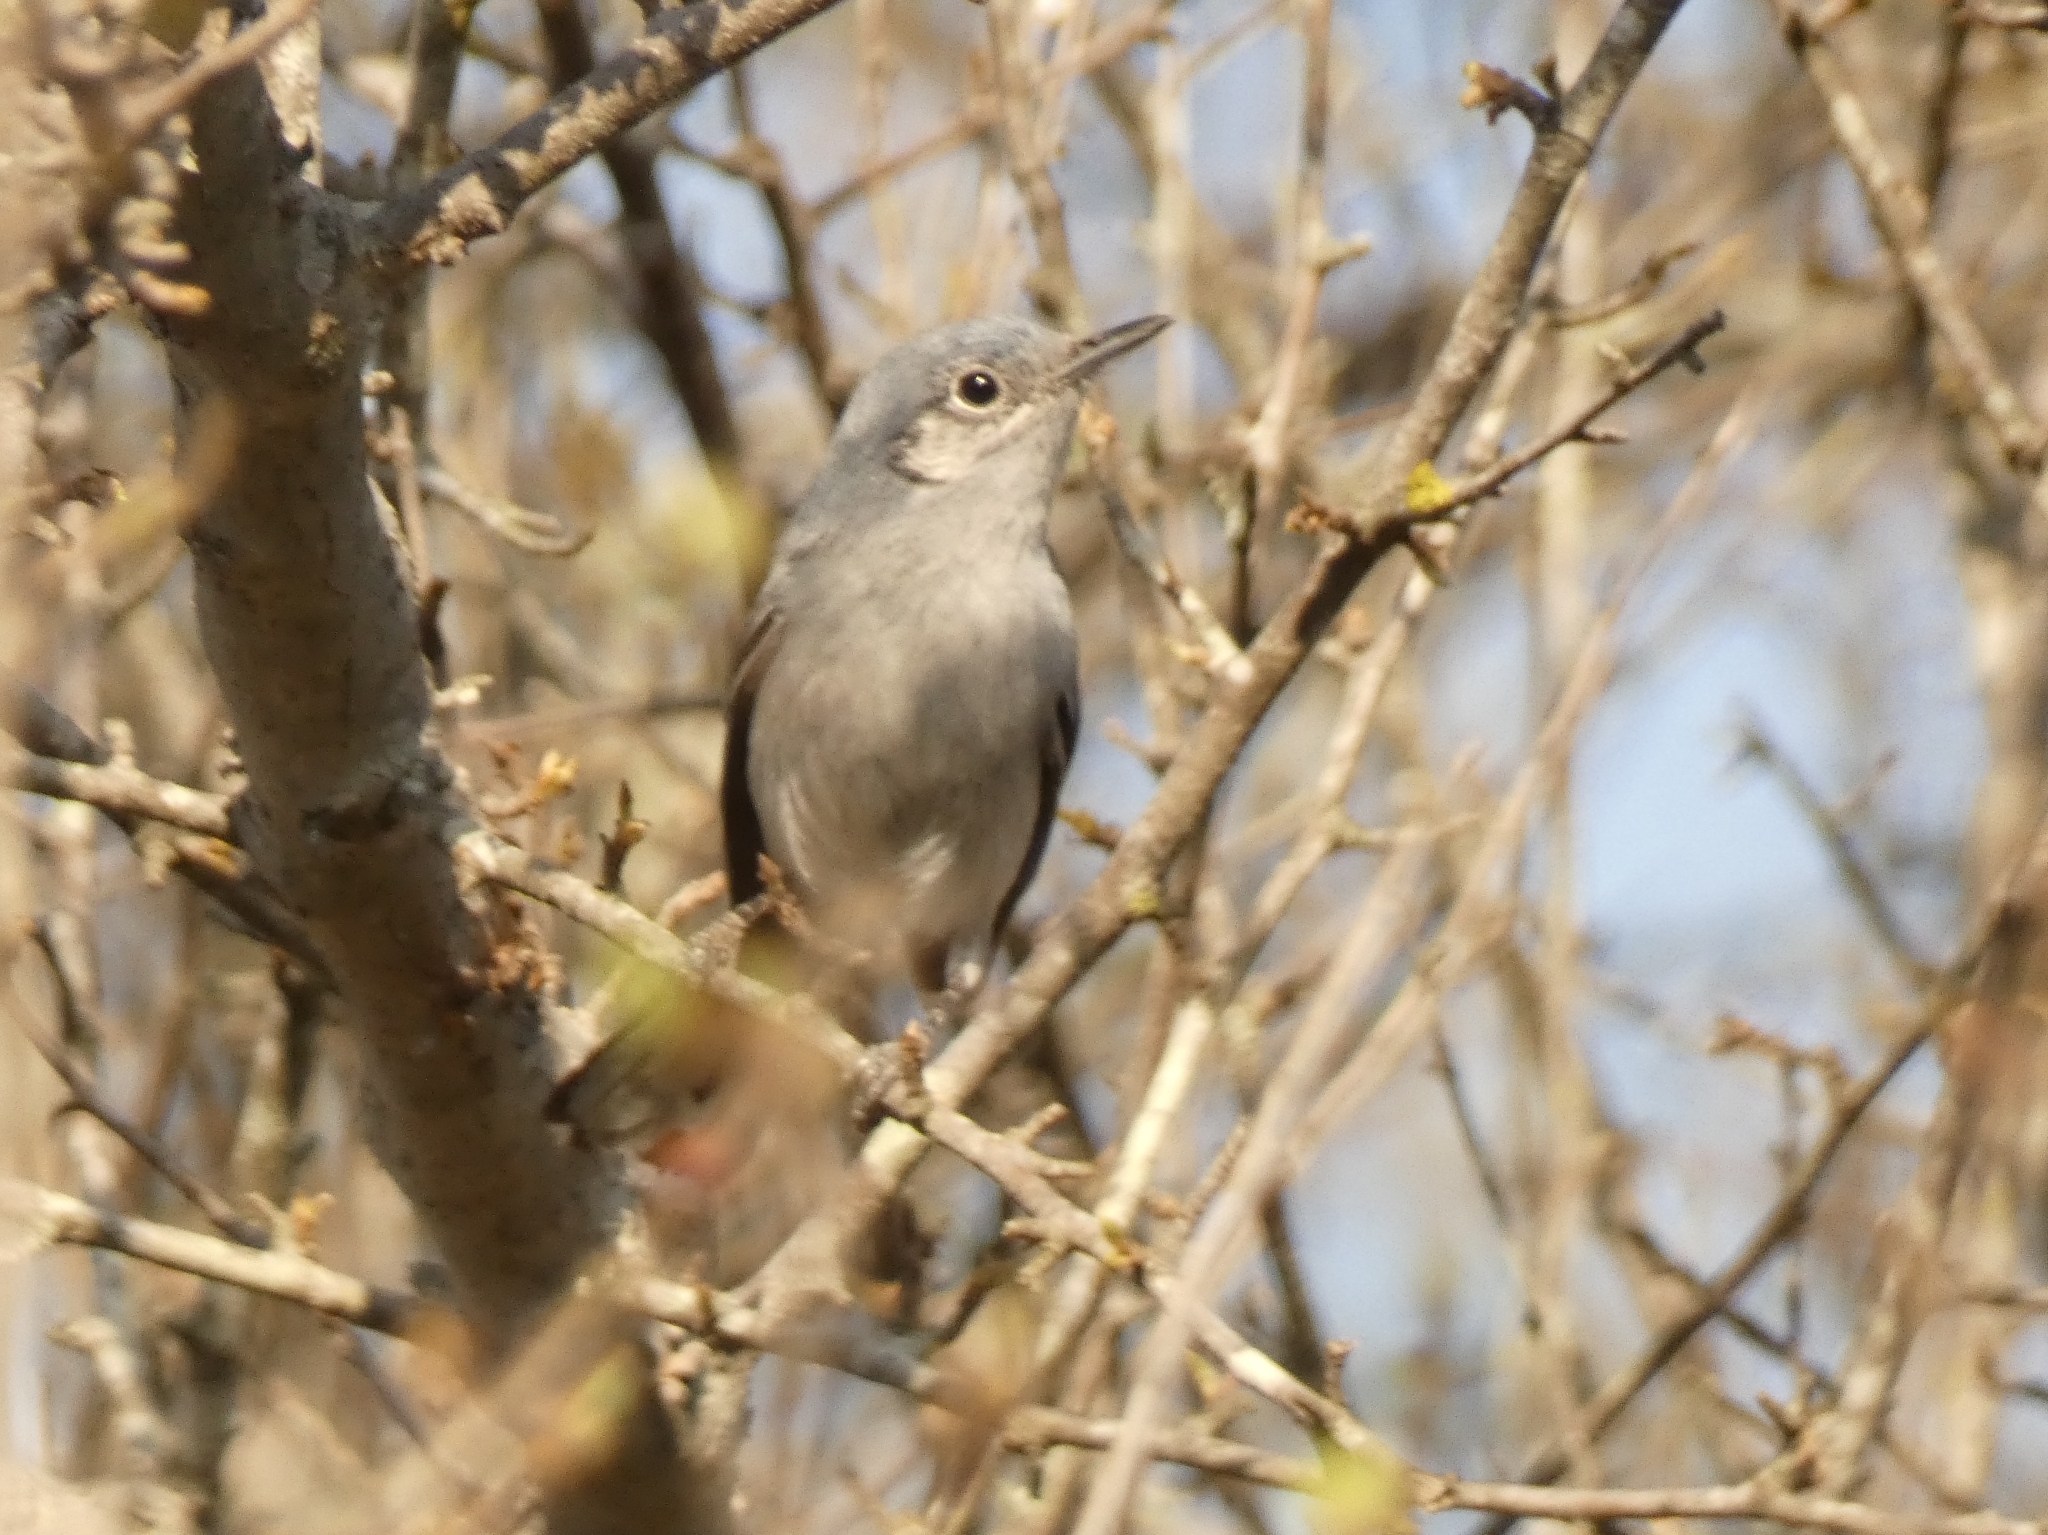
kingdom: Animalia
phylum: Chordata
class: Aves
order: Passeriformes
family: Polioptilidae
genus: Polioptila
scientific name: Polioptila dumicola
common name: Masked gnatcatcher
